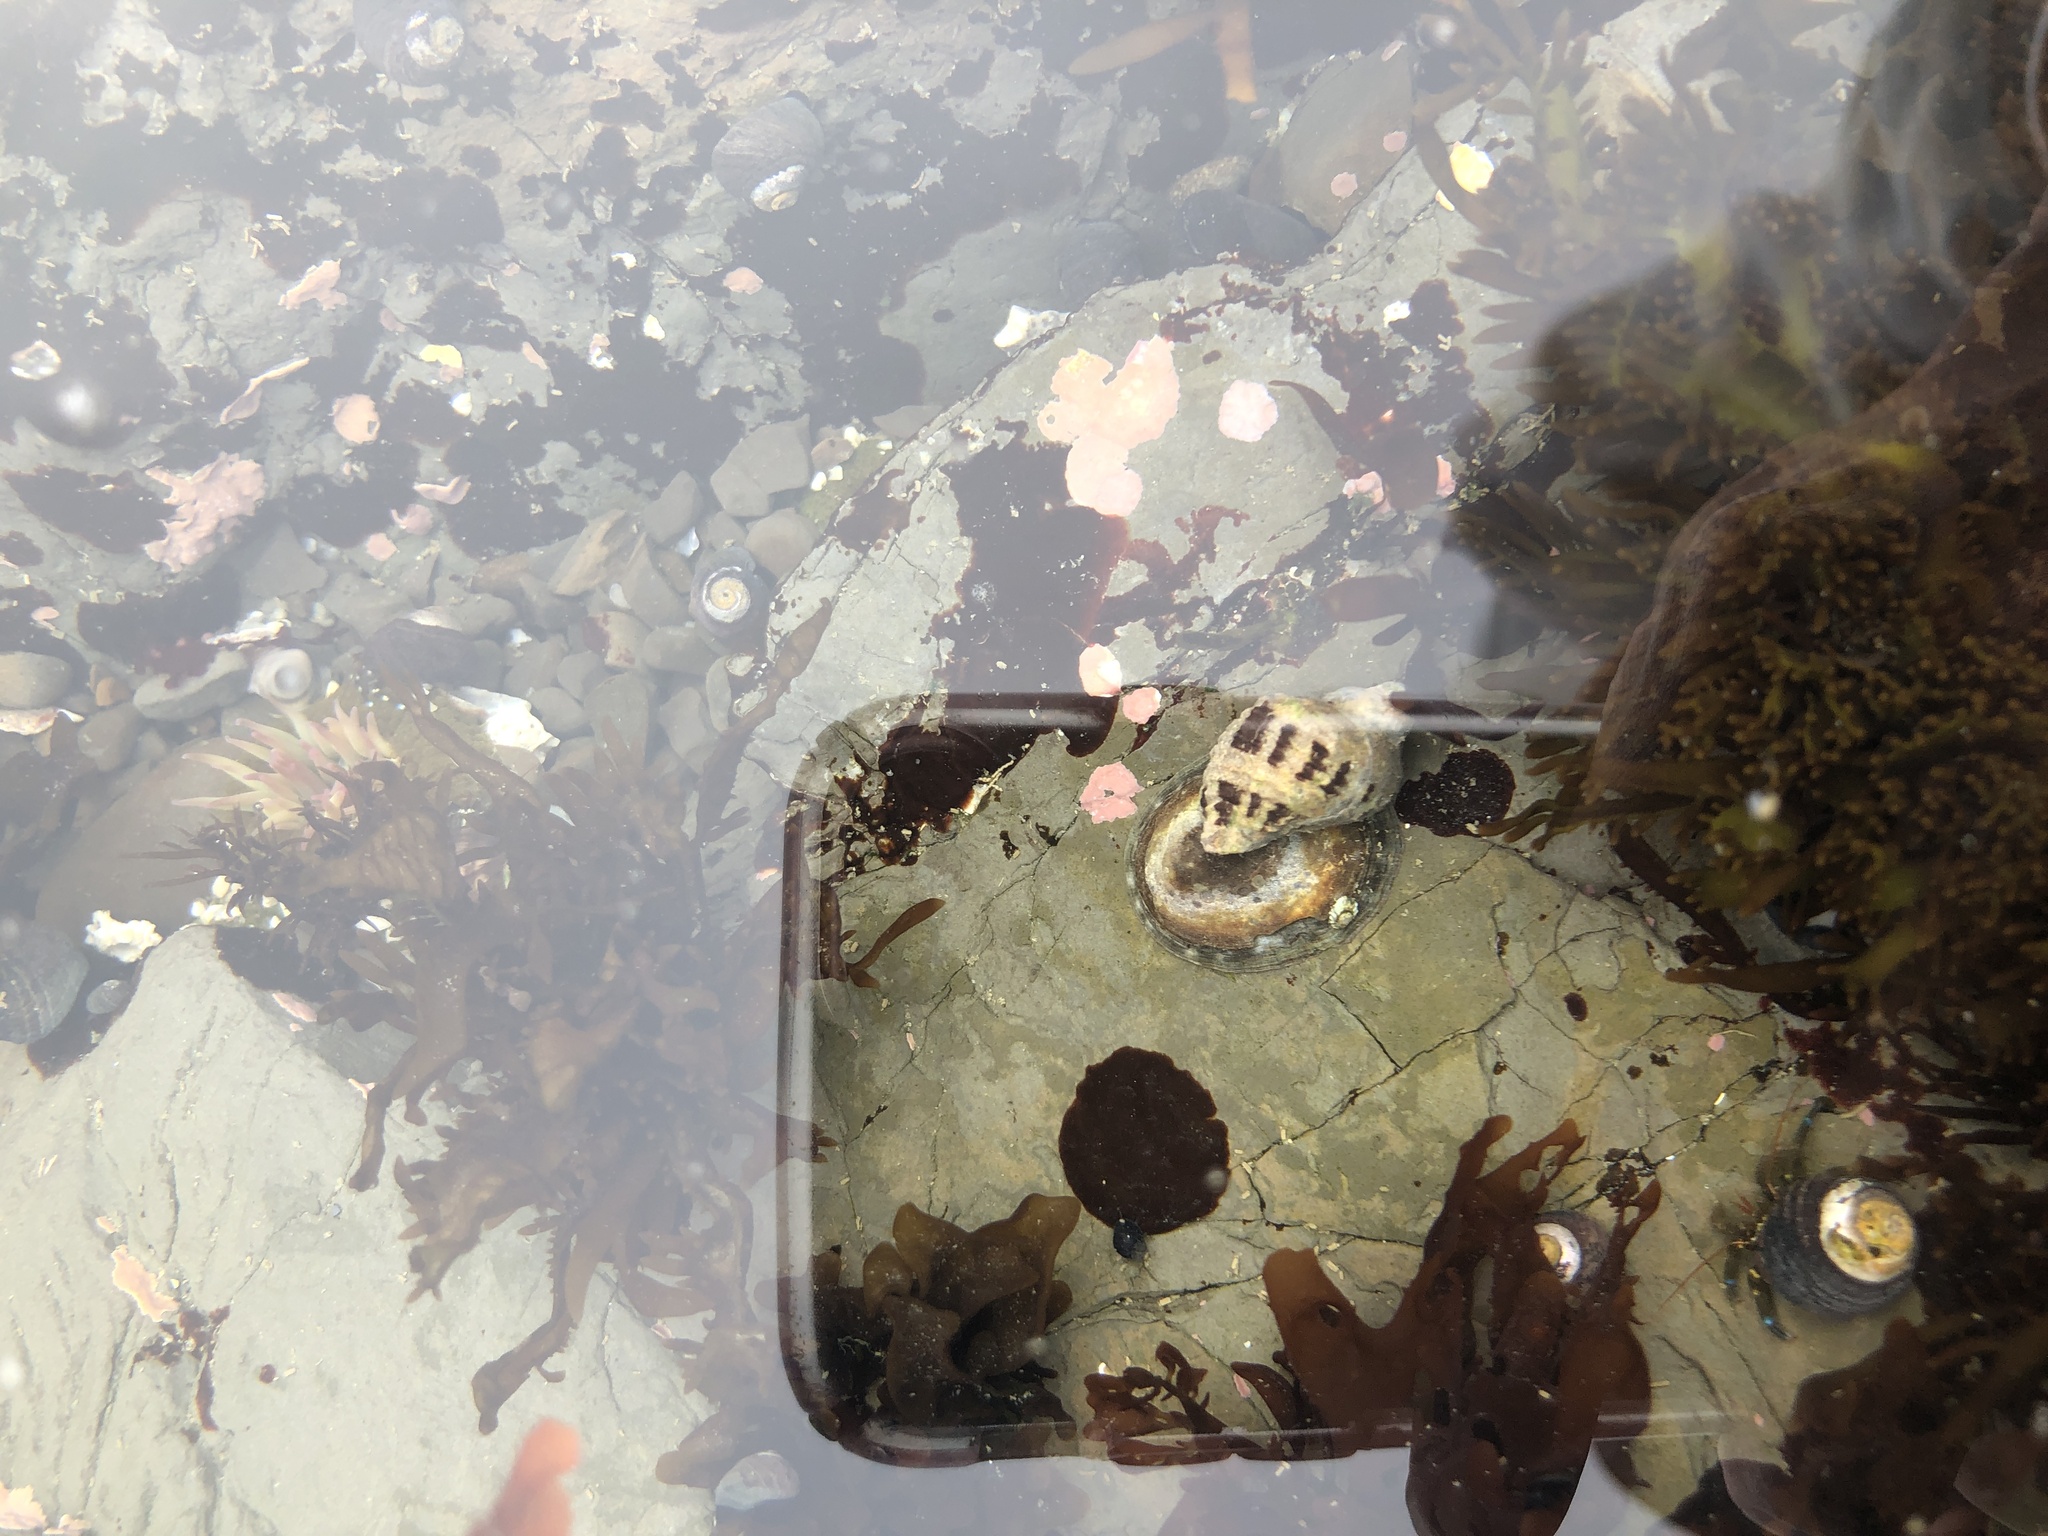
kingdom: Animalia
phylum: Mollusca
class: Gastropoda
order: Neogastropoda
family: Muricidae
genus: Paciocinebrina
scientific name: Paciocinebrina circumtexta
